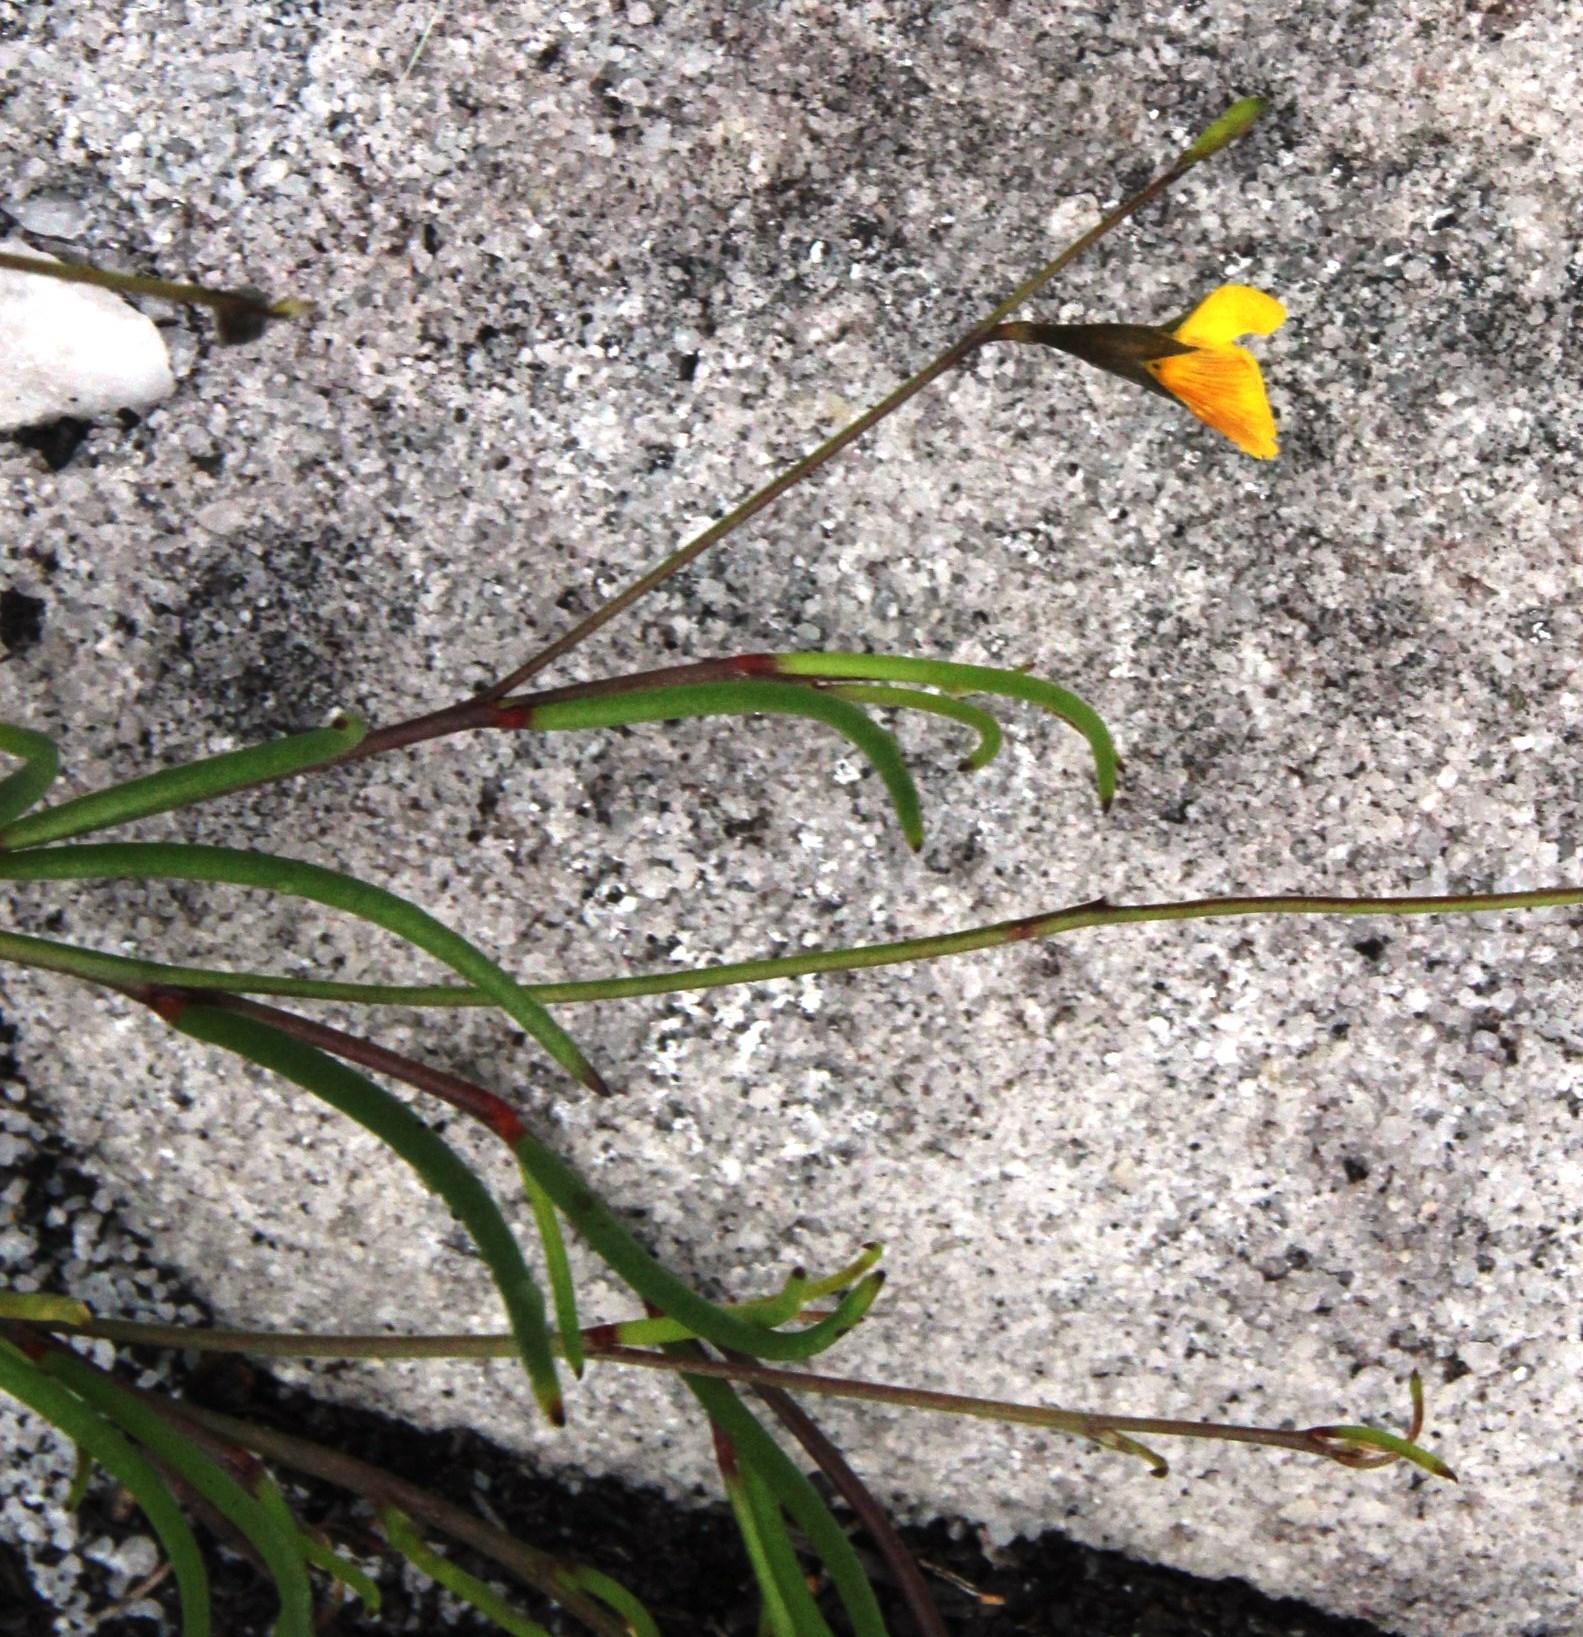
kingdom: Plantae
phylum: Tracheophyta
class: Magnoliopsida
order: Fabales
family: Fabaceae
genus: Lebeckia
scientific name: Lebeckia wrightii
